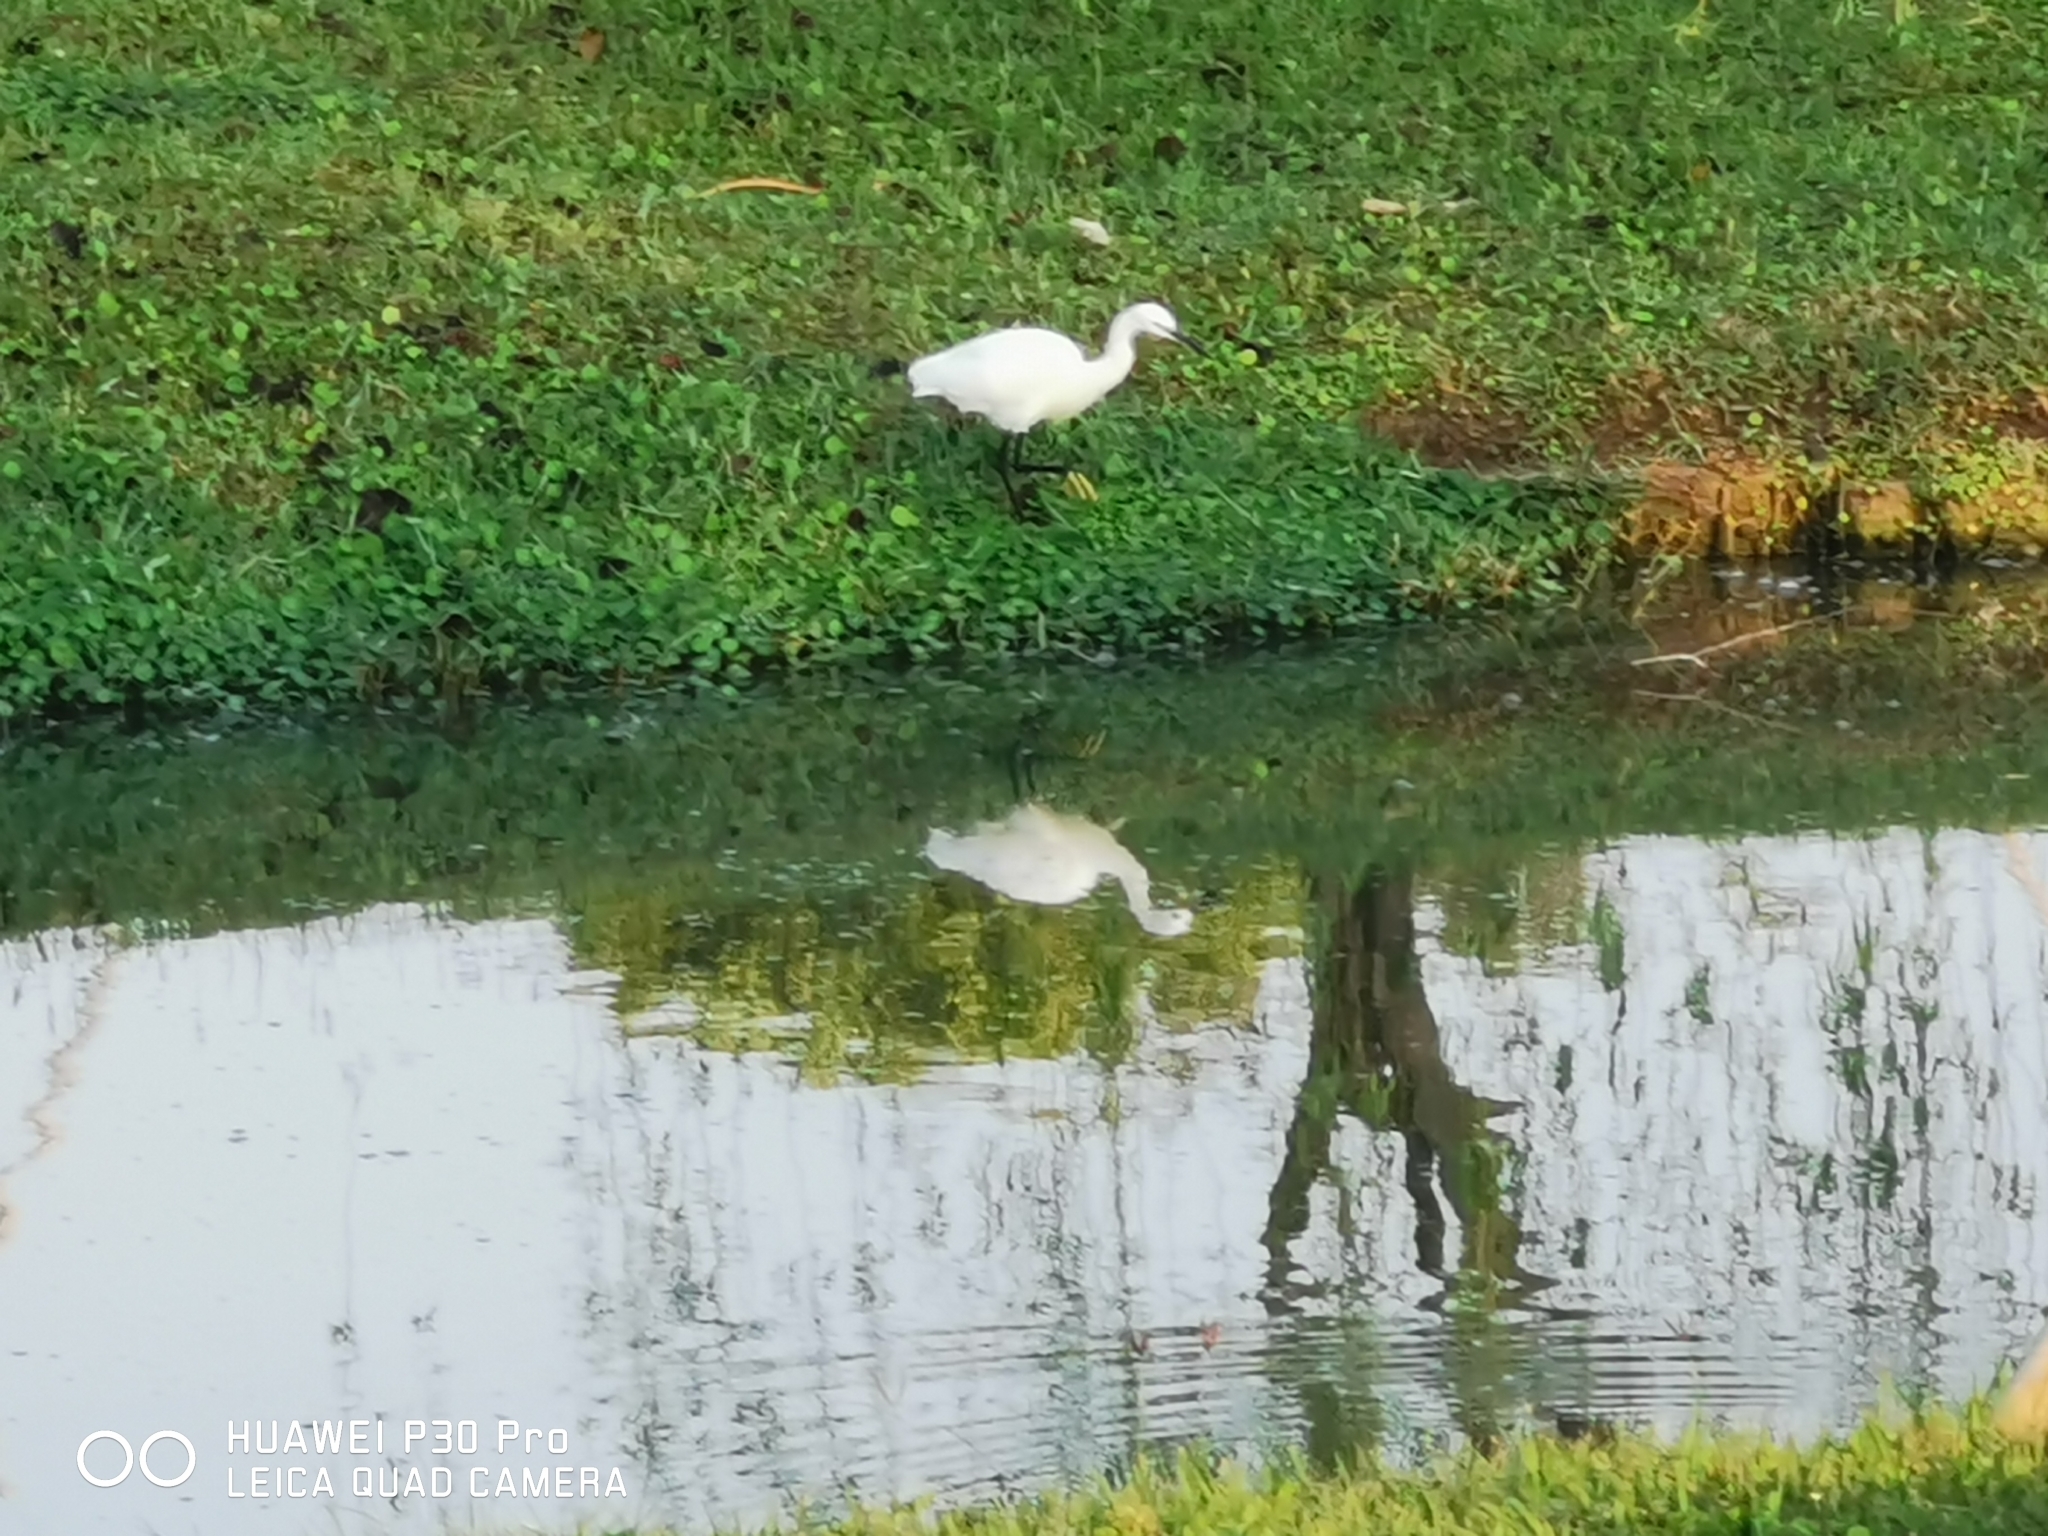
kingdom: Animalia
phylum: Chordata
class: Aves
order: Pelecaniformes
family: Ardeidae
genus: Egretta
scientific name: Egretta garzetta
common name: Little egret
